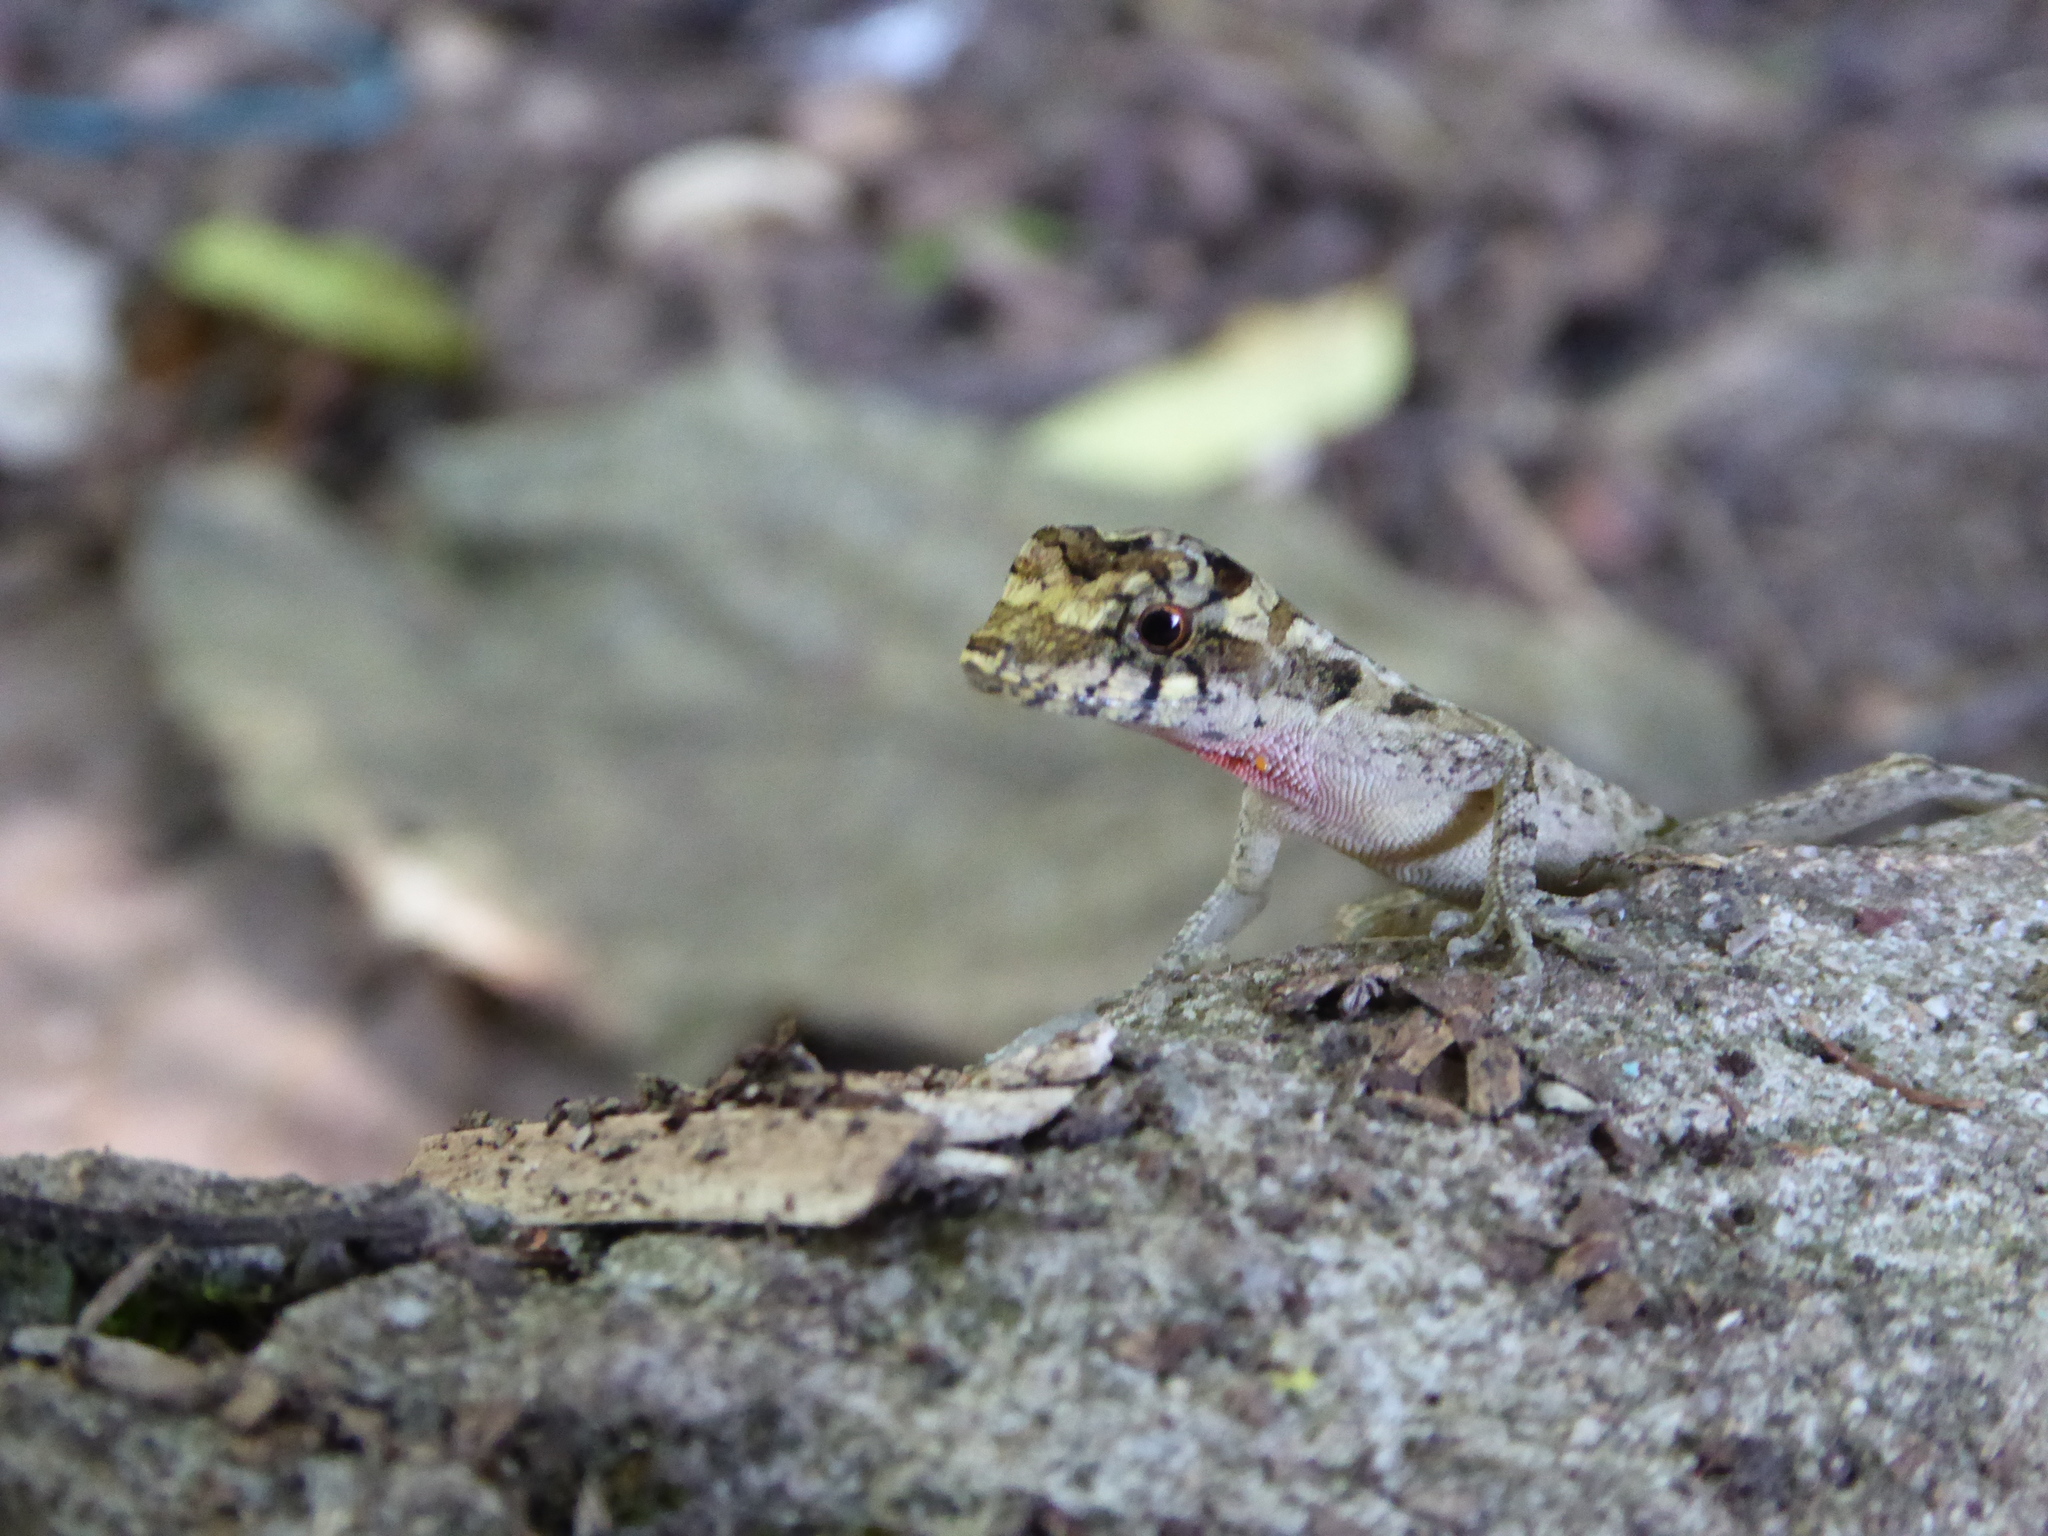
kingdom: Animalia
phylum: Chordata
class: Squamata
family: Dactyloidae
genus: Anolis
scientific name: Anolis lemurinus
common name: Ghost anole
